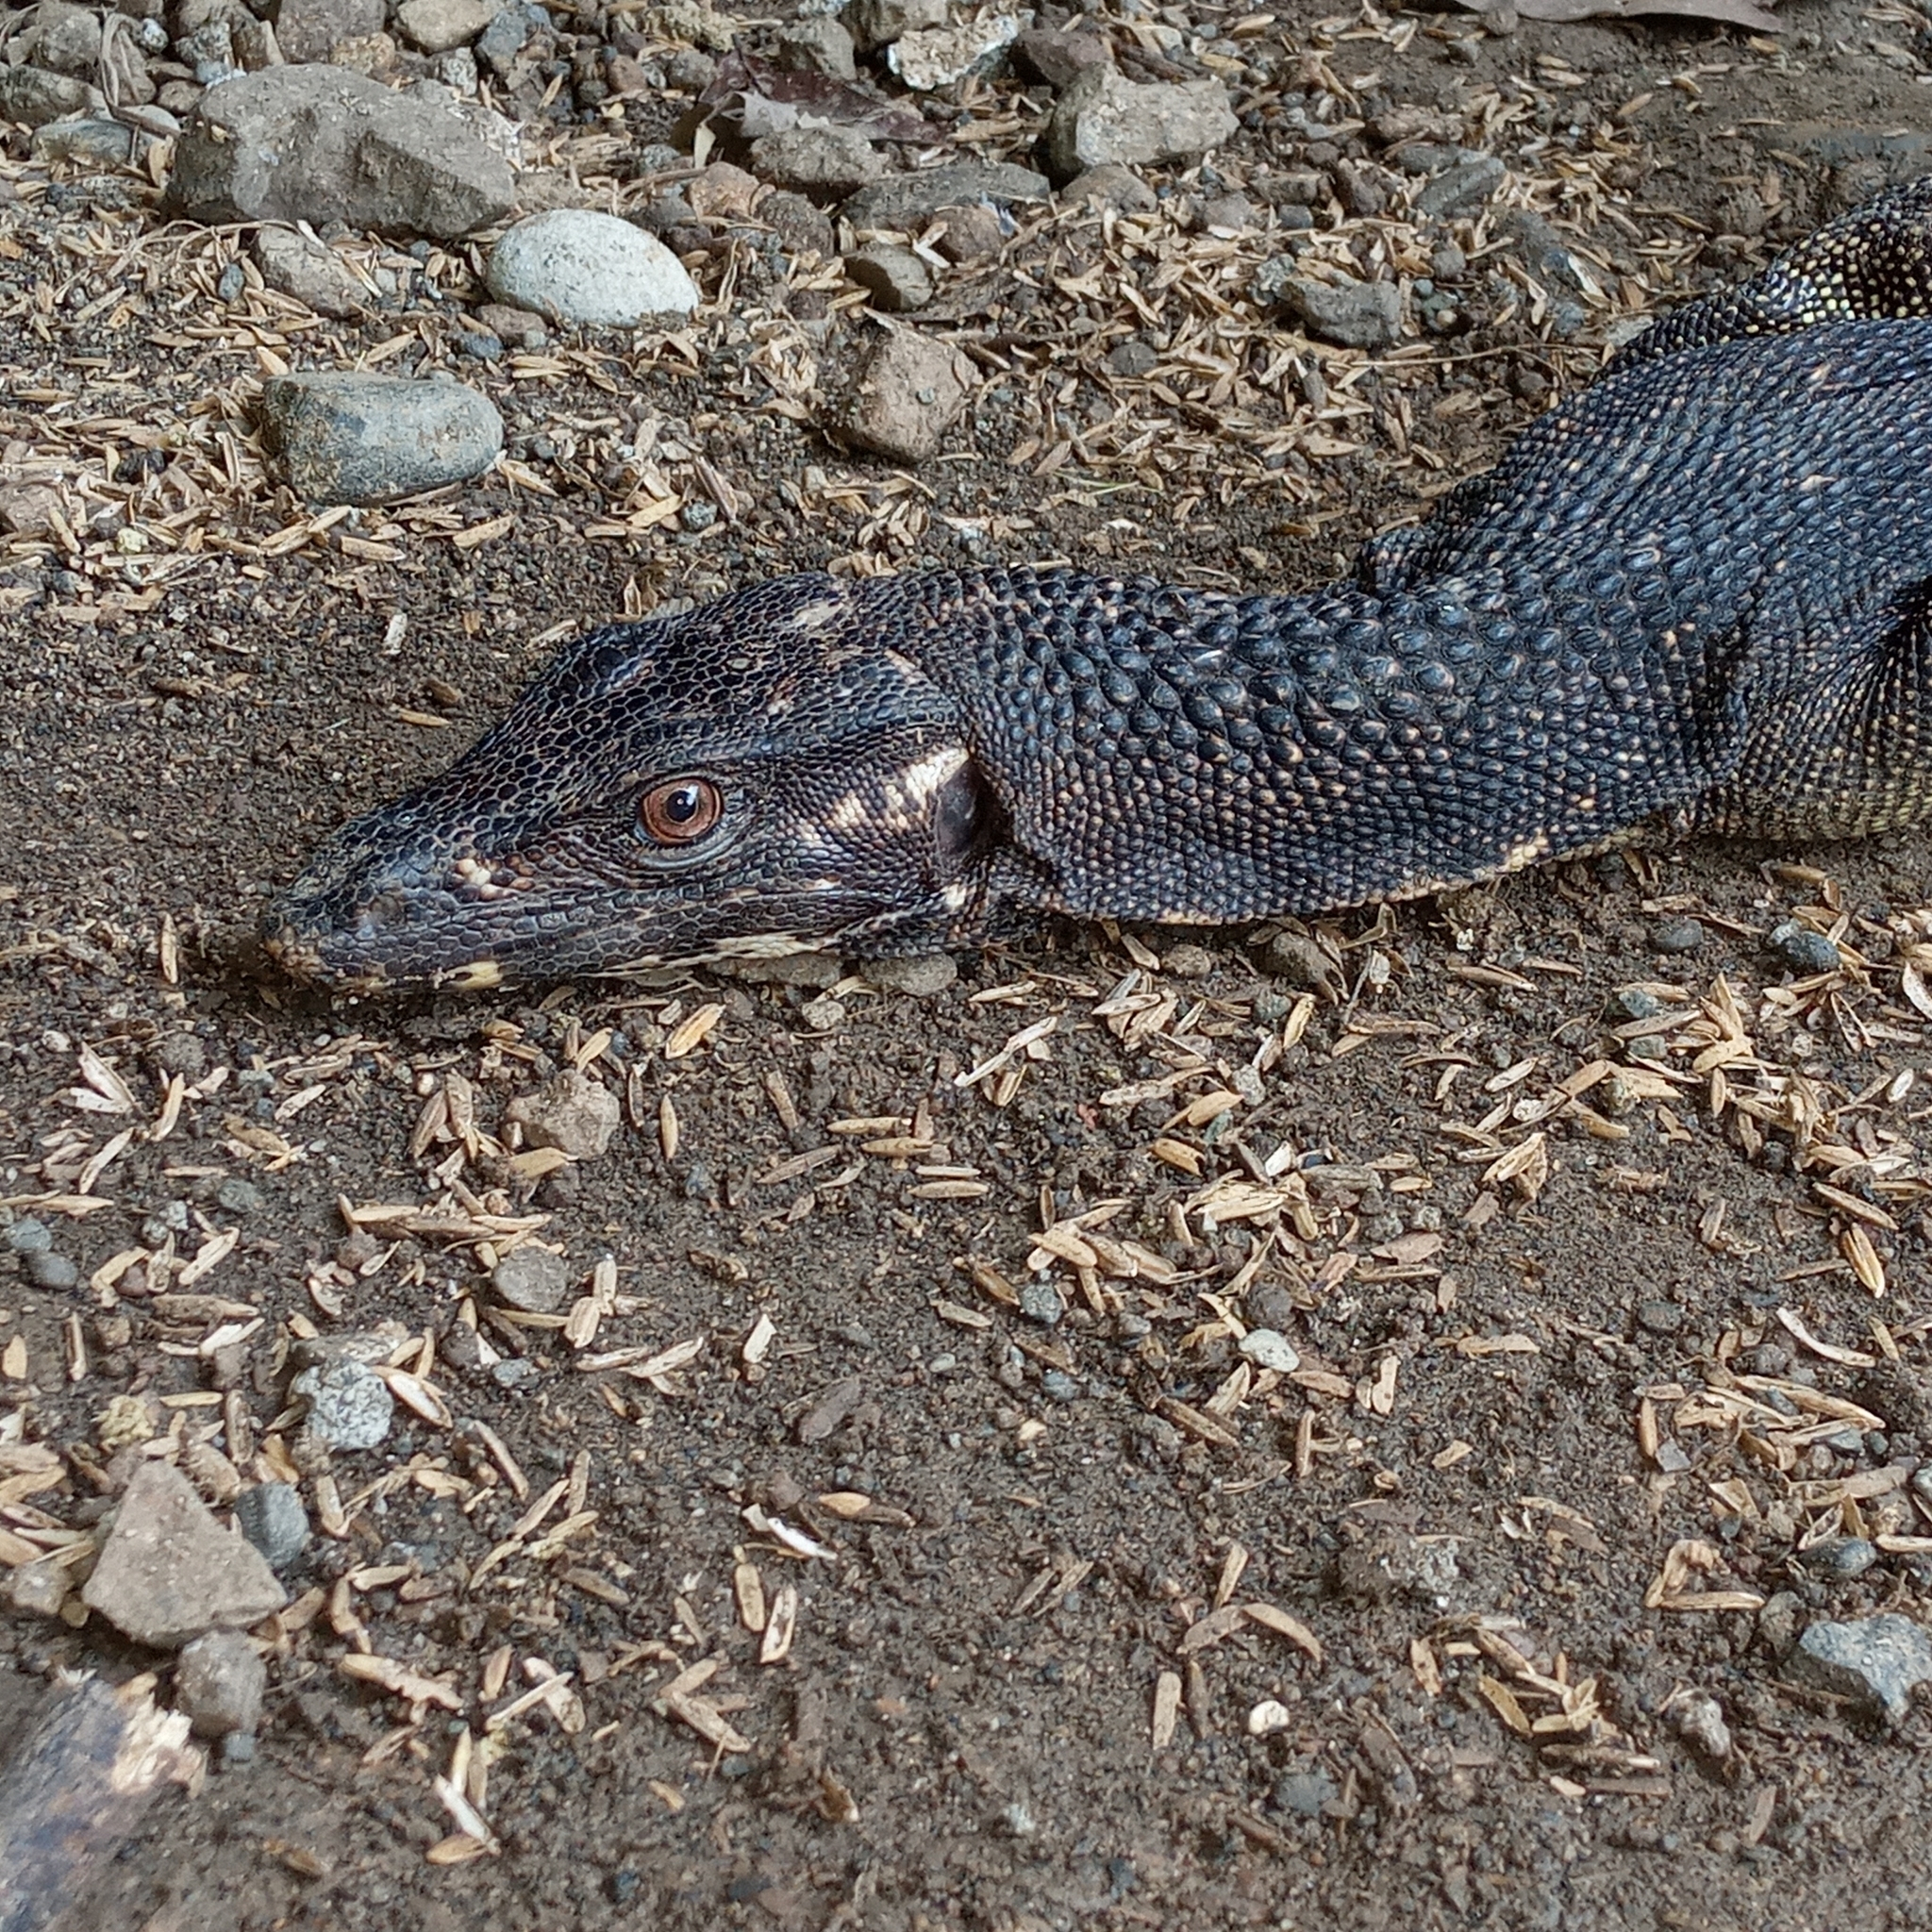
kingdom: Animalia
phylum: Chordata
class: Squamata
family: Varanidae
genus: Varanus
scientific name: Varanus nuchalis
